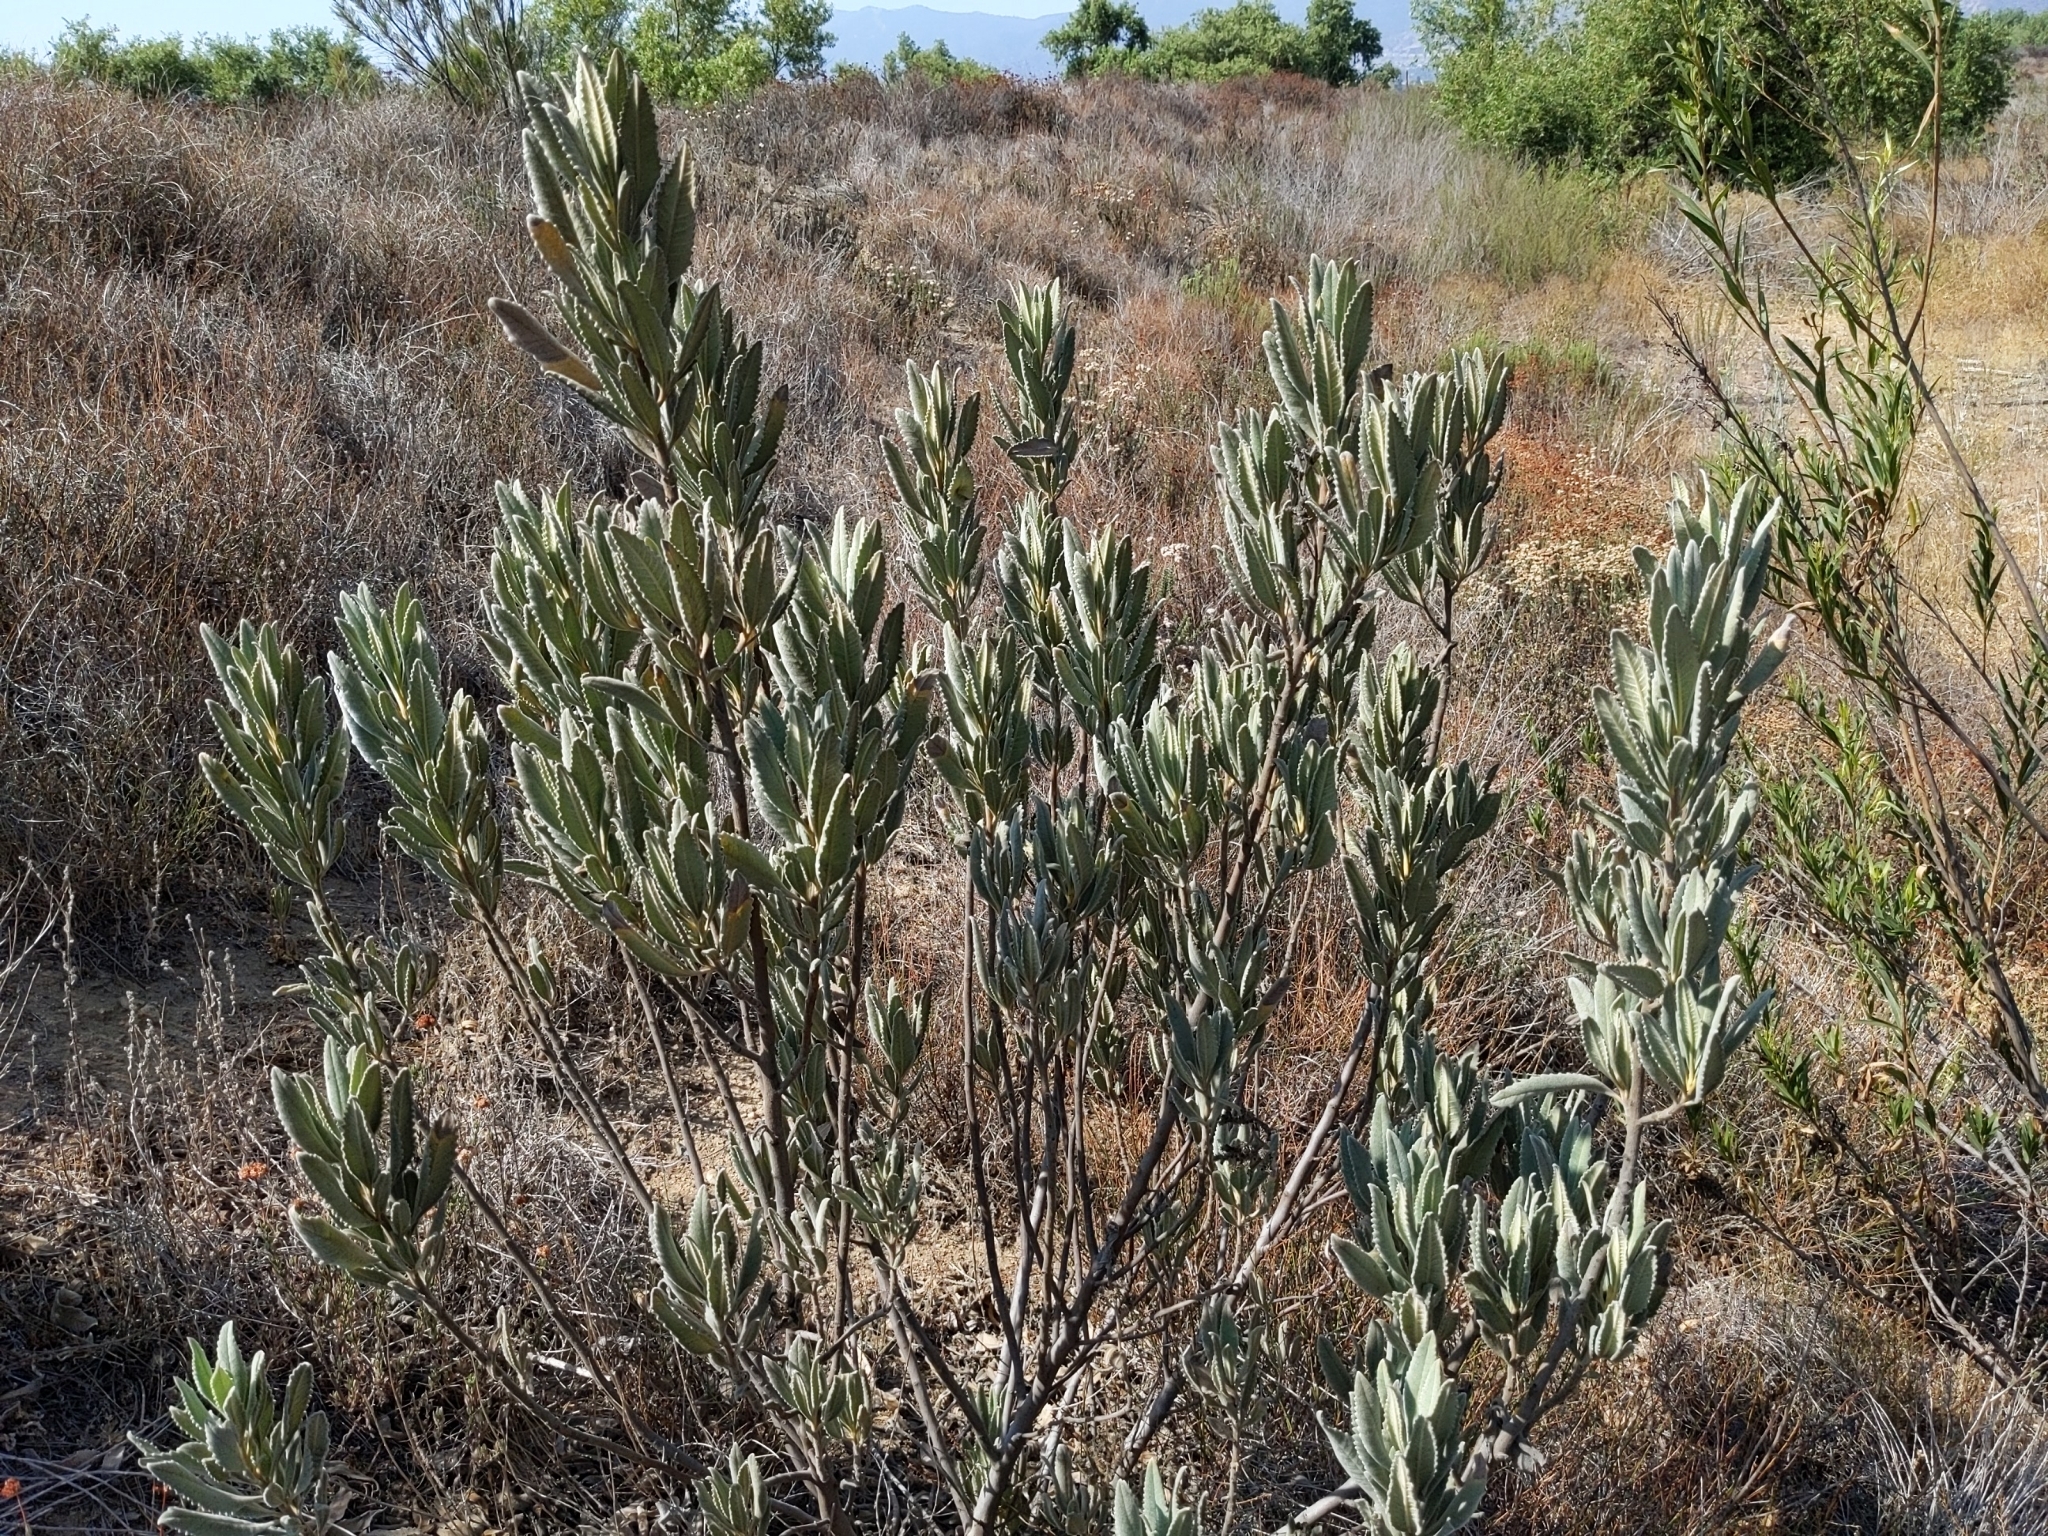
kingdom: Plantae
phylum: Tracheophyta
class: Magnoliopsida
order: Boraginales
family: Namaceae
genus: Eriodictyon
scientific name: Eriodictyon crassifolium
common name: Thick-leaf yerba-santa
